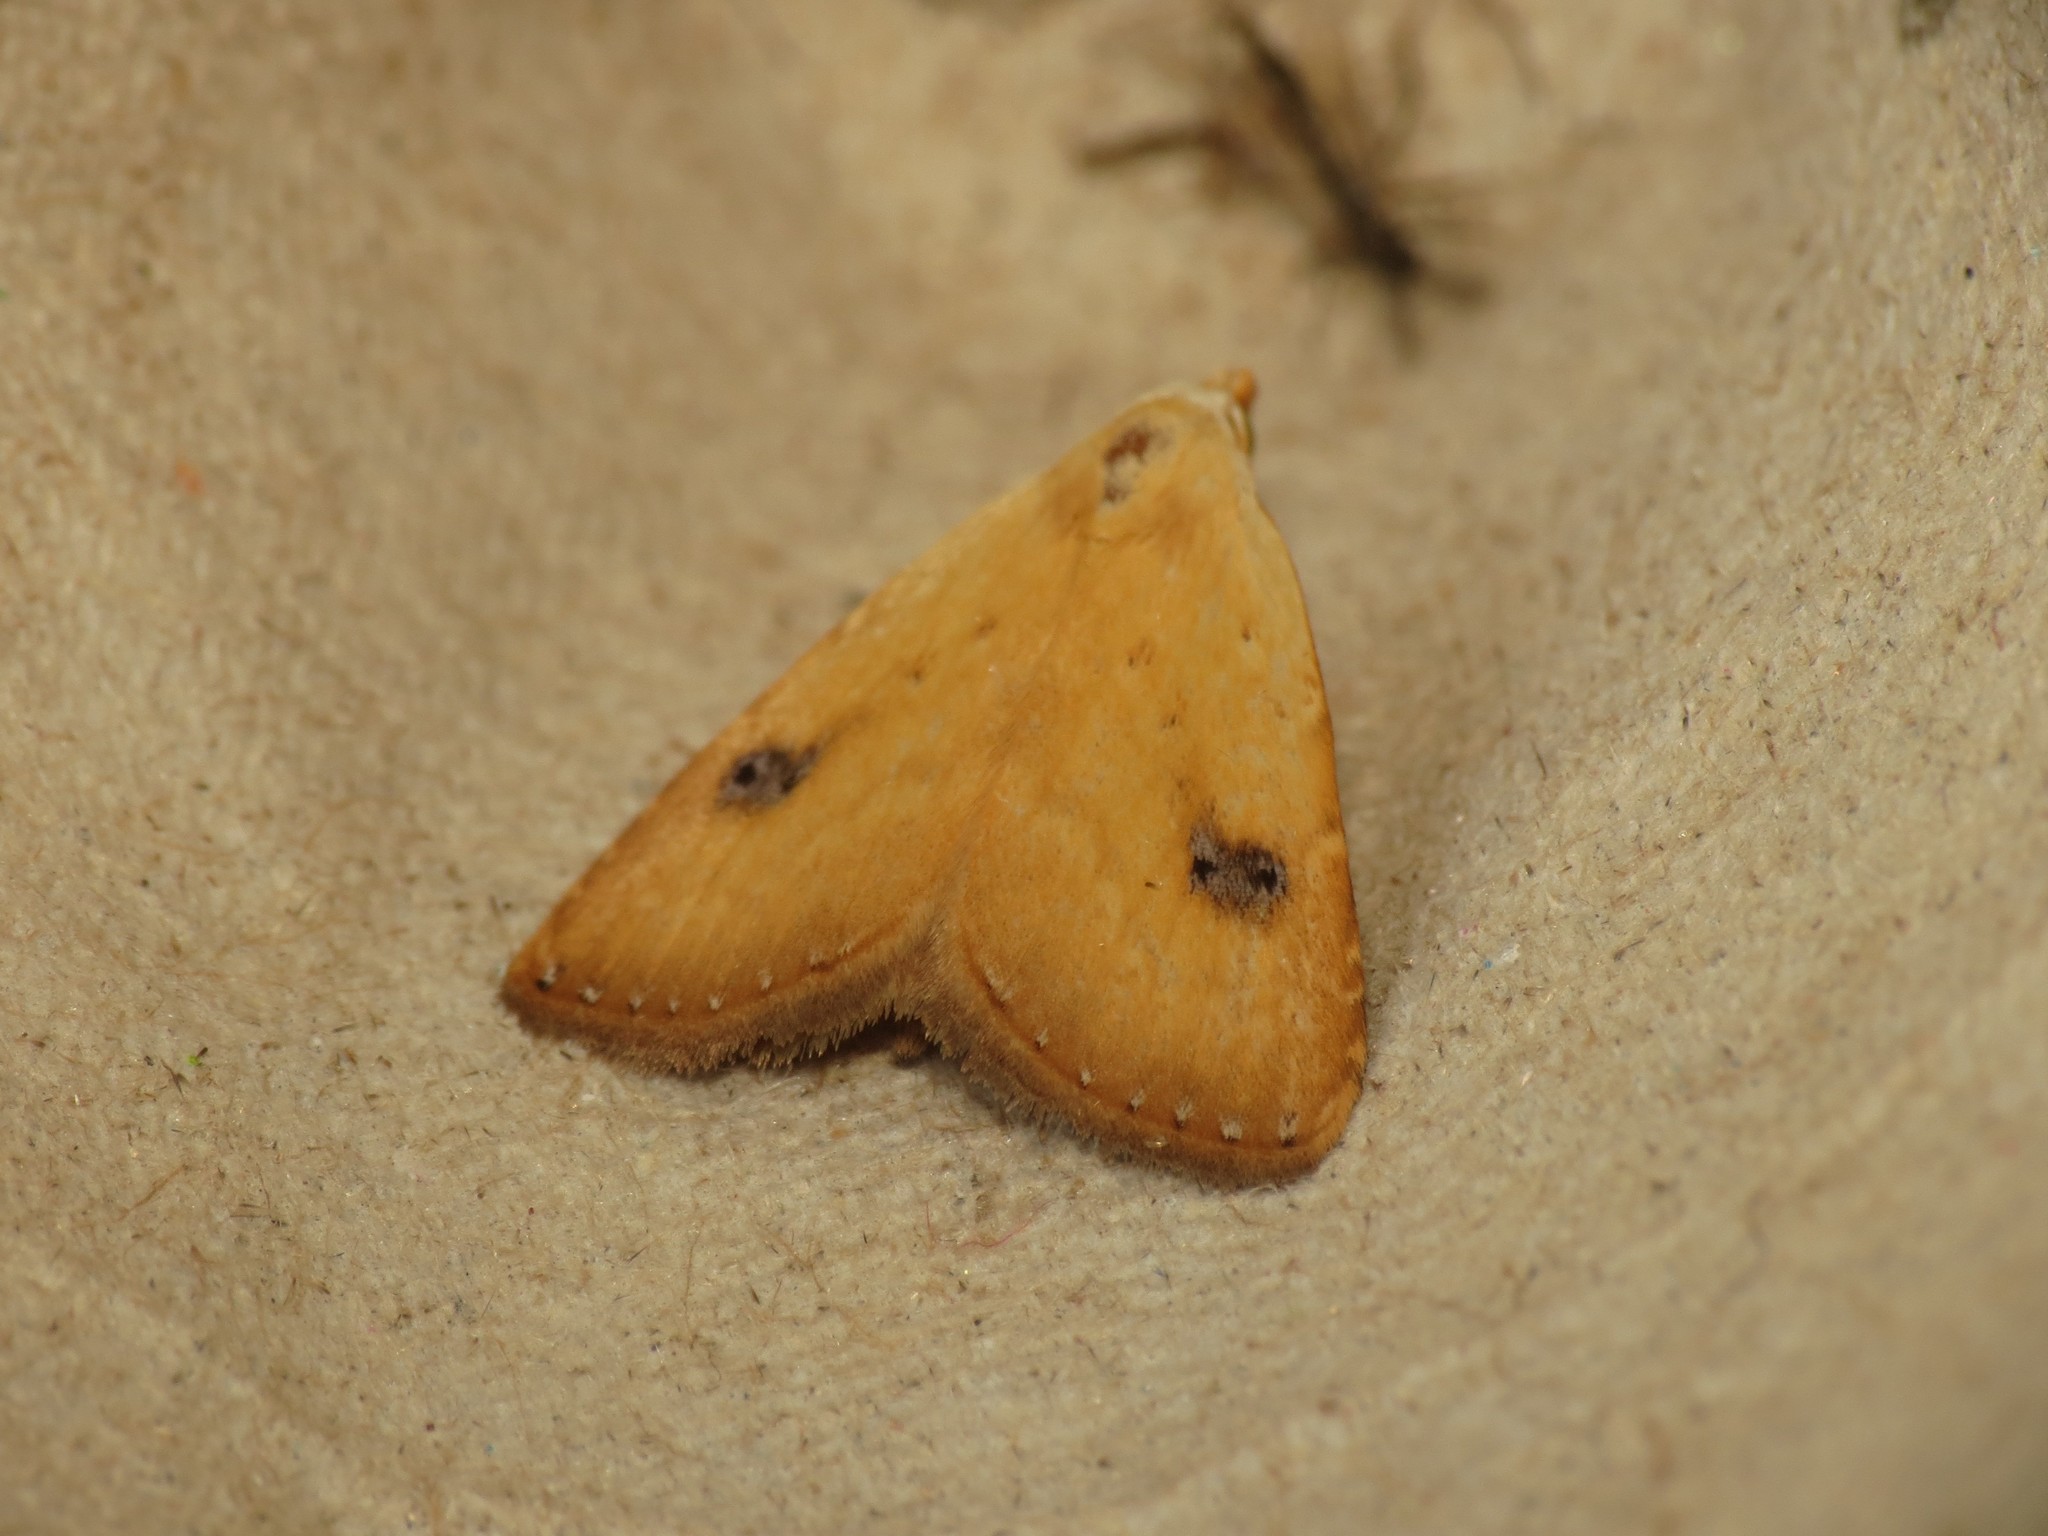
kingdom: Animalia
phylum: Arthropoda
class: Insecta
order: Lepidoptera
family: Erebidae
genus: Rivula
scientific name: Rivula sericealis
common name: Straw dot
